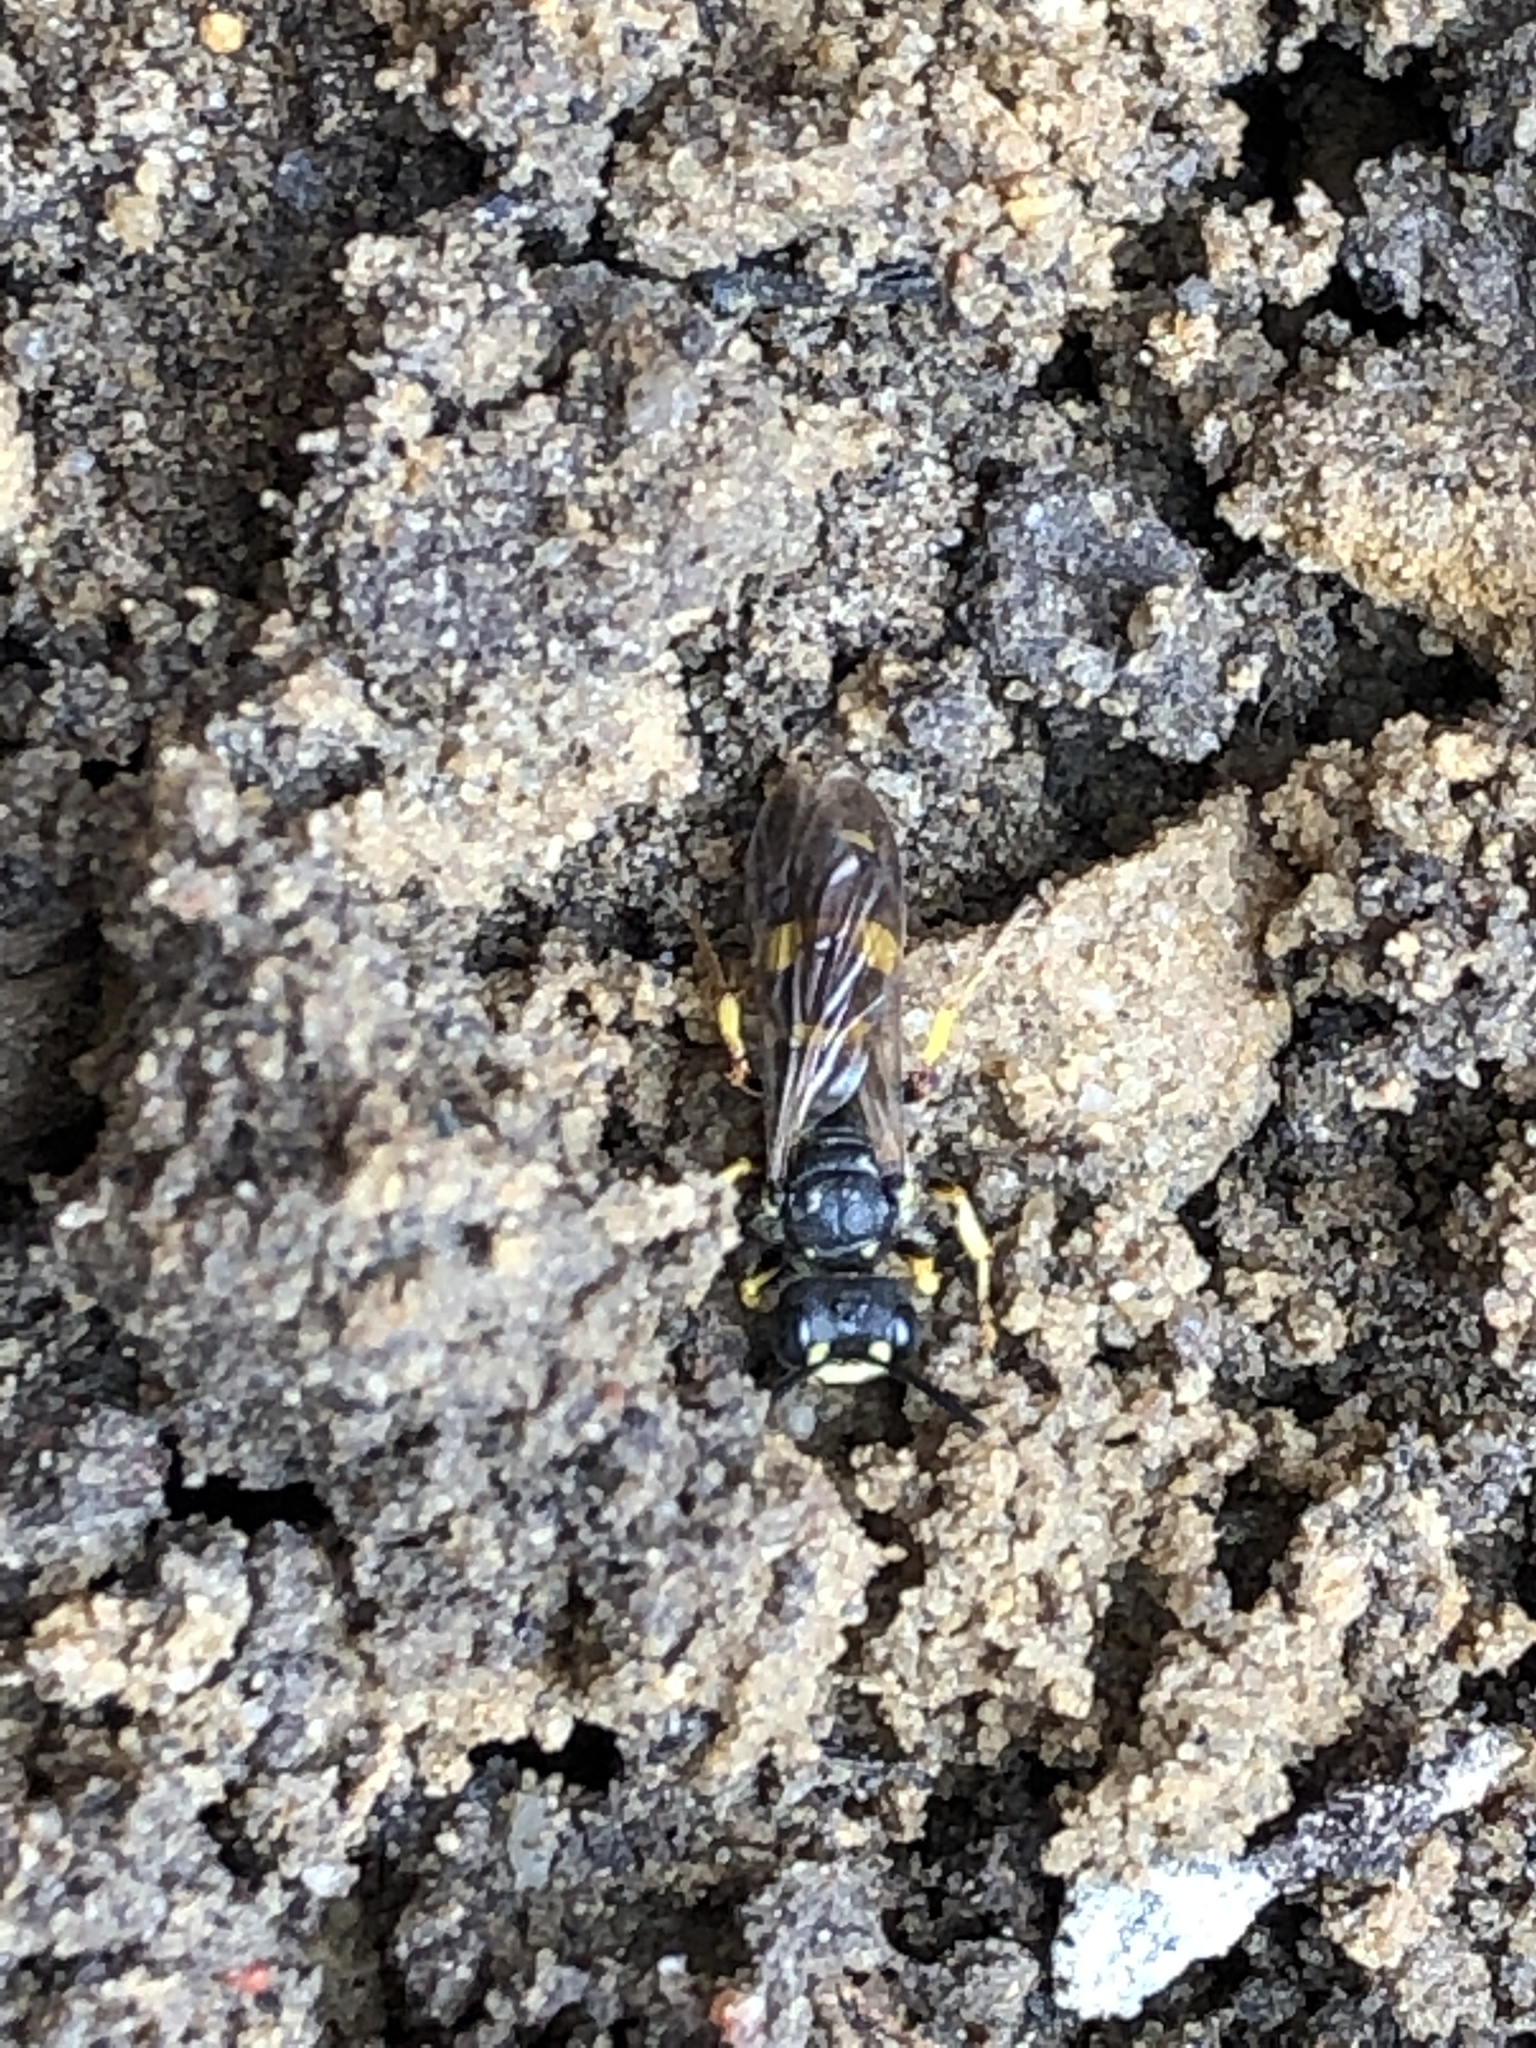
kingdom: Animalia
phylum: Arthropoda
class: Insecta
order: Hymenoptera
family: Crabronidae
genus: Cerceris
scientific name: Cerceris rybyensis
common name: Ornate tailed digger wasp
